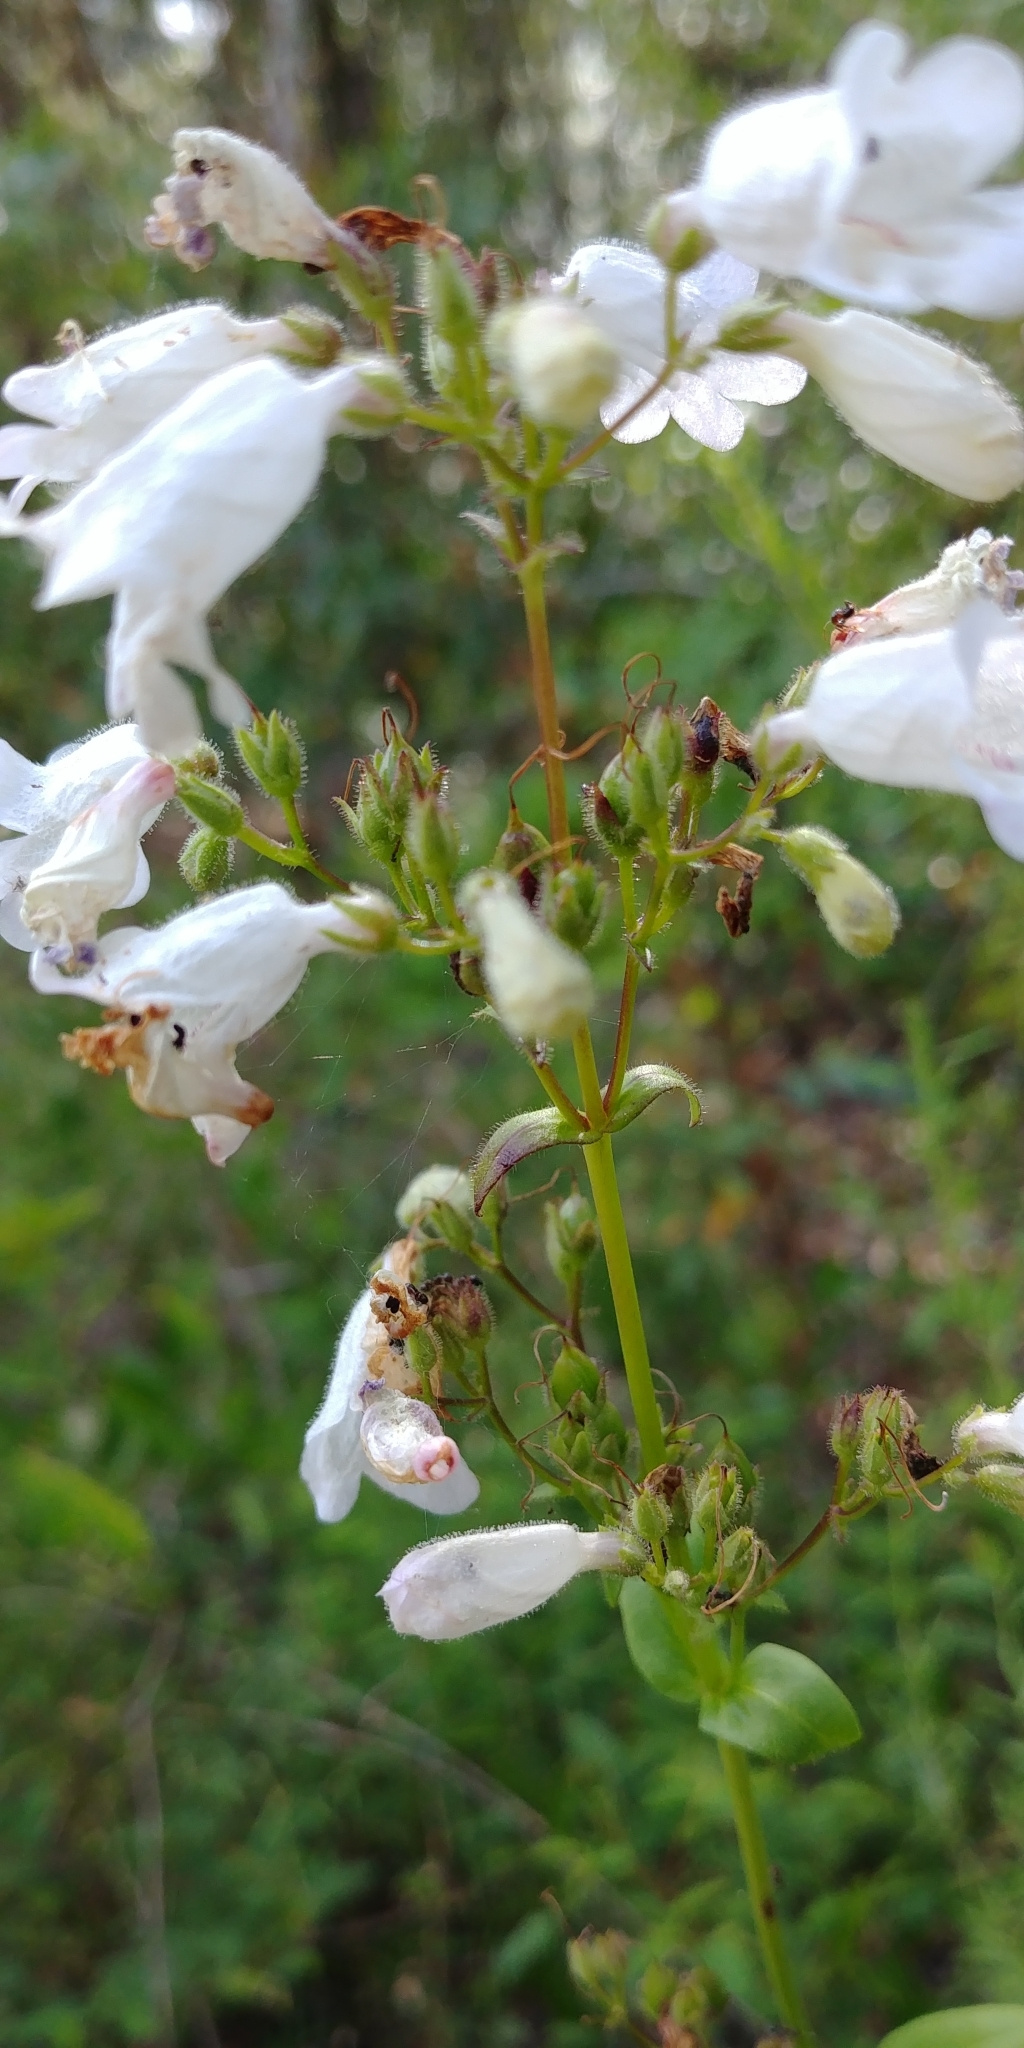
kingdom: Plantae
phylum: Tracheophyta
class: Magnoliopsida
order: Lamiales
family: Plantaginaceae
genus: Penstemon
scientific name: Penstemon multiflorus
